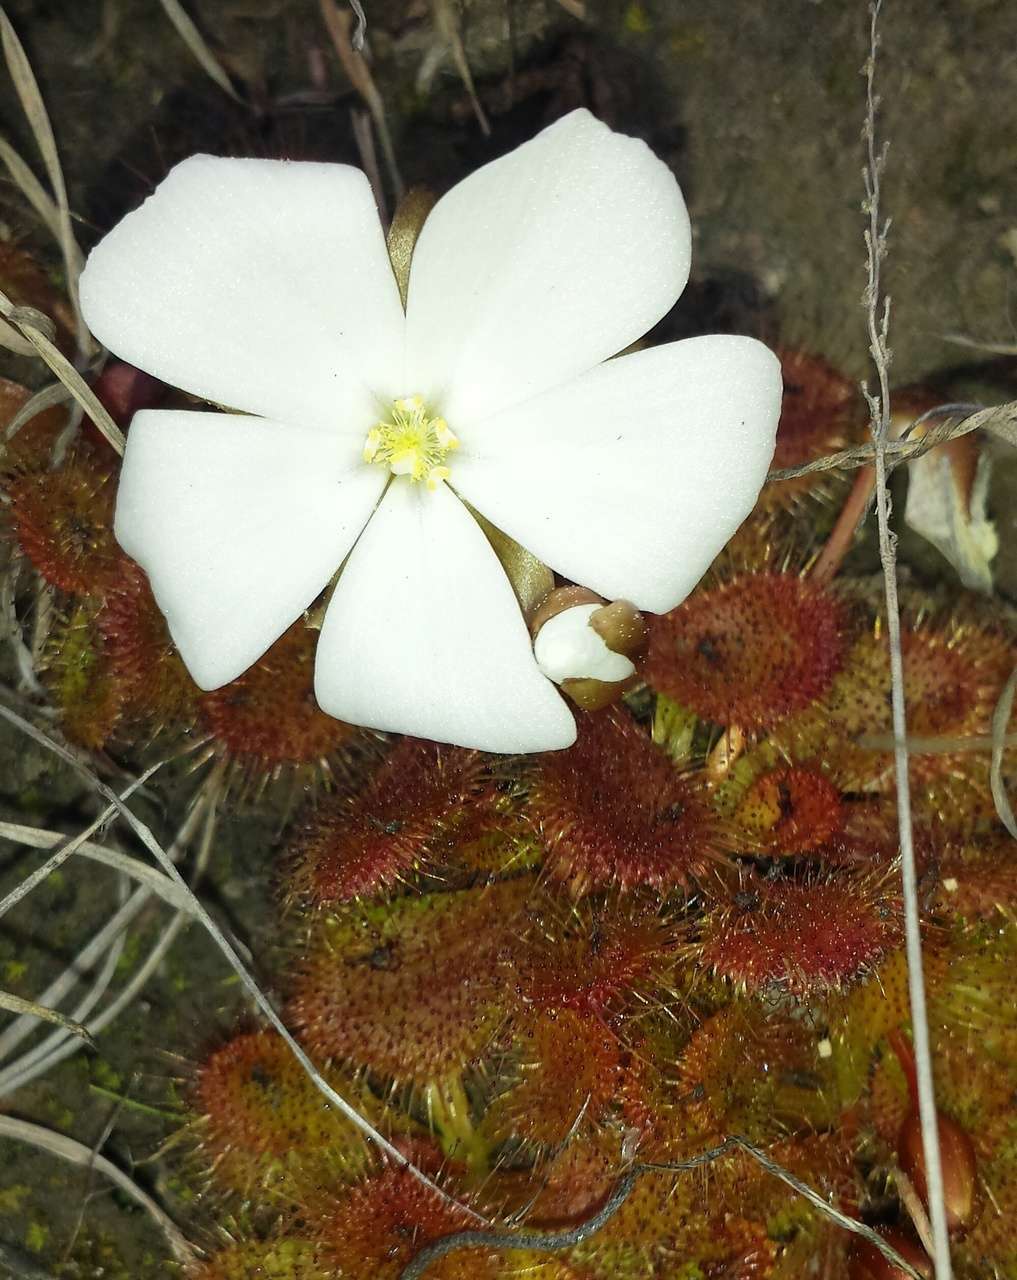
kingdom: Plantae
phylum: Tracheophyta
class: Magnoliopsida
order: Caryophyllales
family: Droseraceae
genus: Drosera
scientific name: Drosera aberrans
